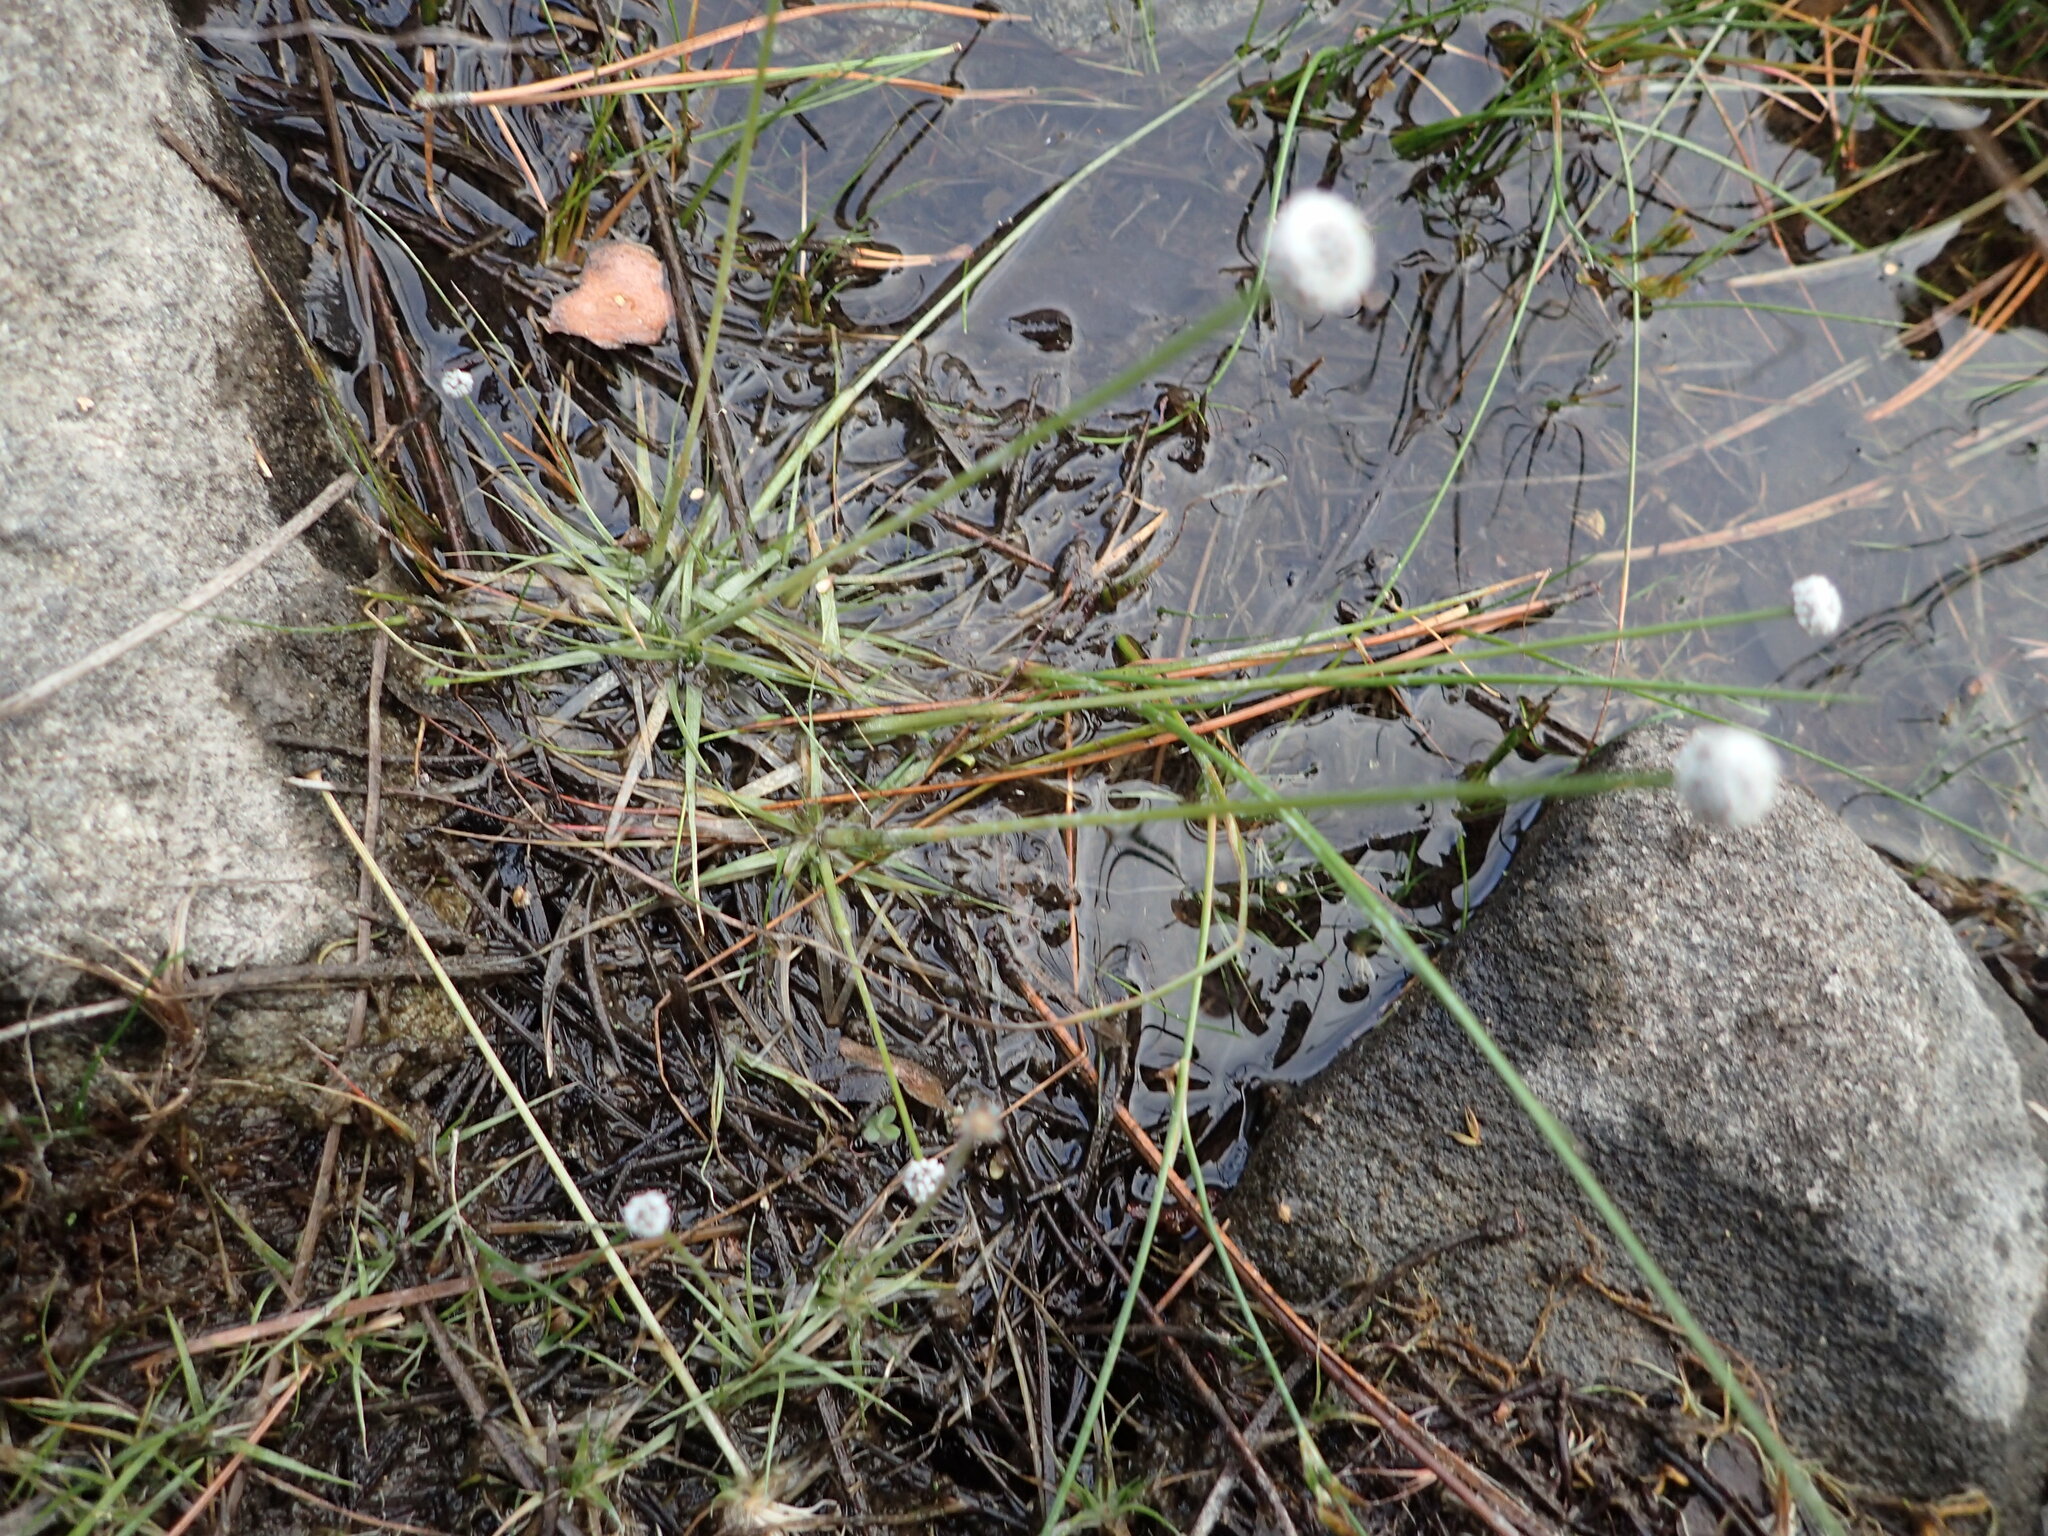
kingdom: Plantae
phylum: Tracheophyta
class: Liliopsida
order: Poales
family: Eriocaulaceae
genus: Eriocaulon
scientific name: Eriocaulon aquaticum
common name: Pipewort
